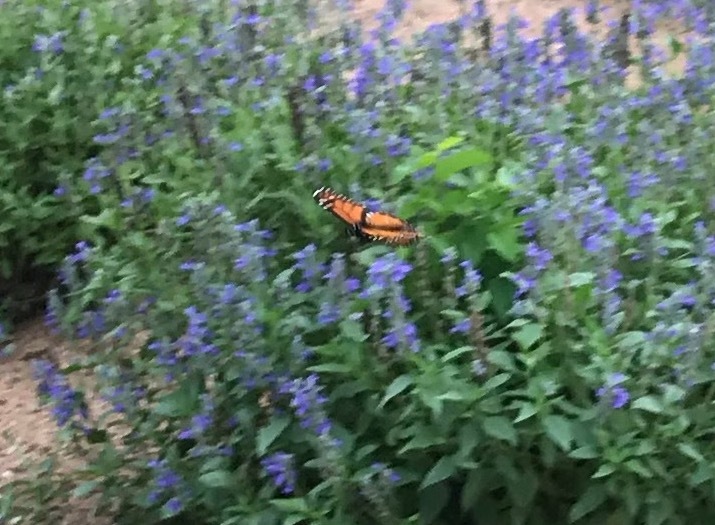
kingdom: Animalia
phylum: Arthropoda
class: Insecta
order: Lepidoptera
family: Nymphalidae
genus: Danaus
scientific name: Danaus plexippus
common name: Monarch
